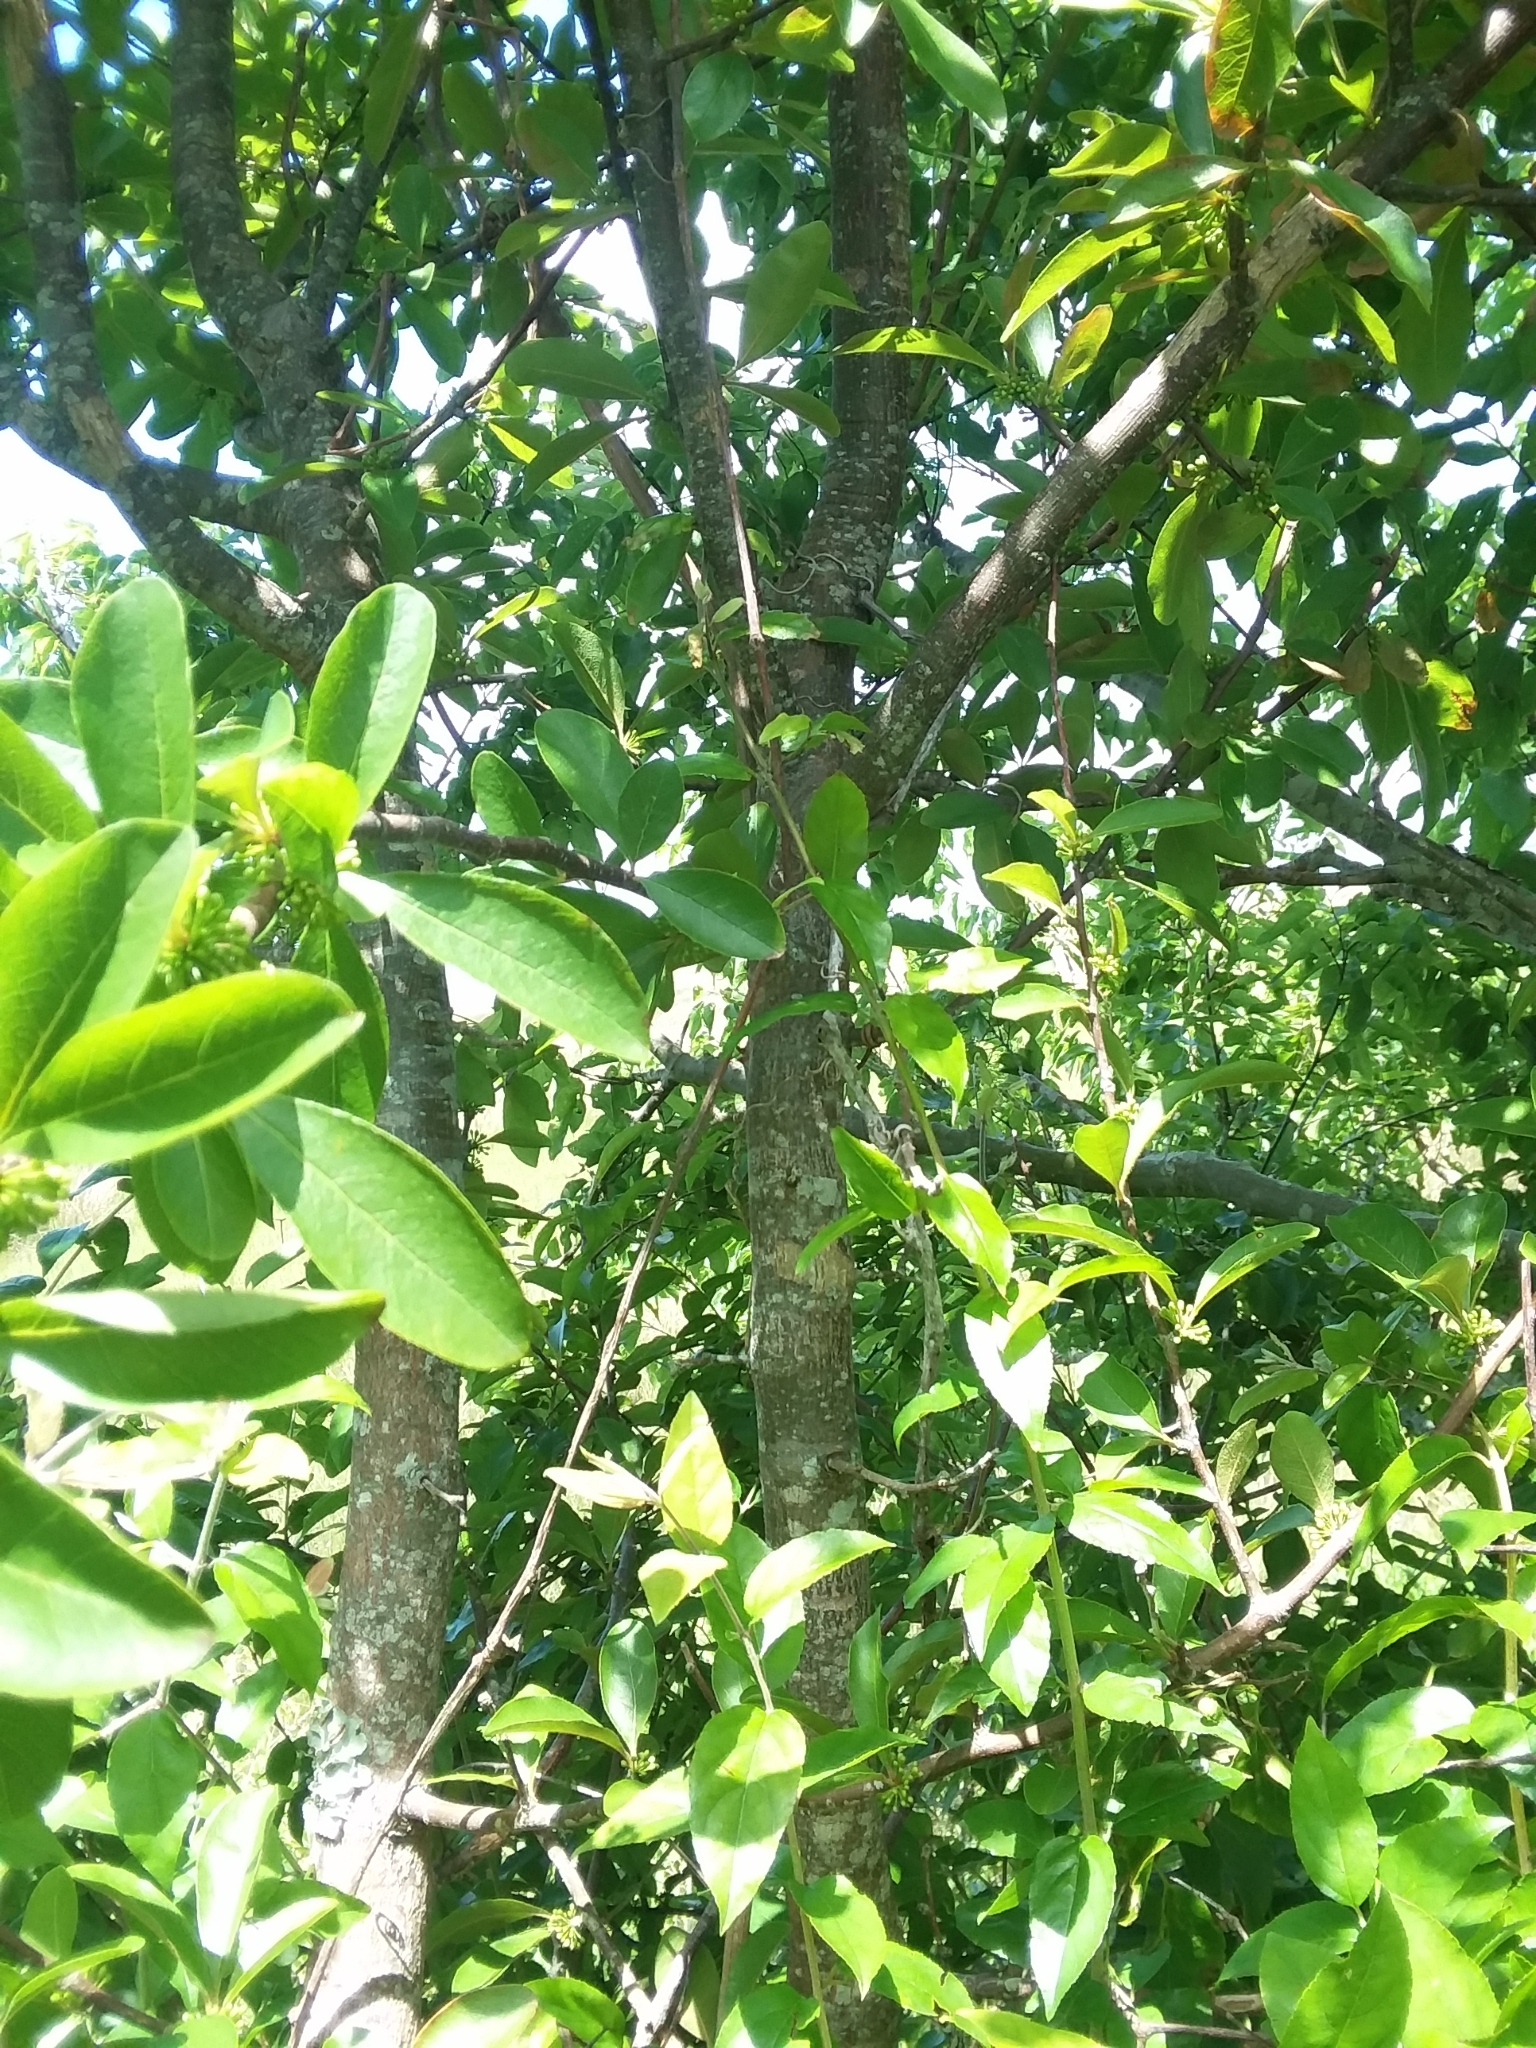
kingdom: Plantae
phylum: Tracheophyta
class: Magnoliopsida
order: Ericales
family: Sapotaceae
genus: Sideroxylon
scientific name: Sideroxylon lanuginosum
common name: Chittamwood
